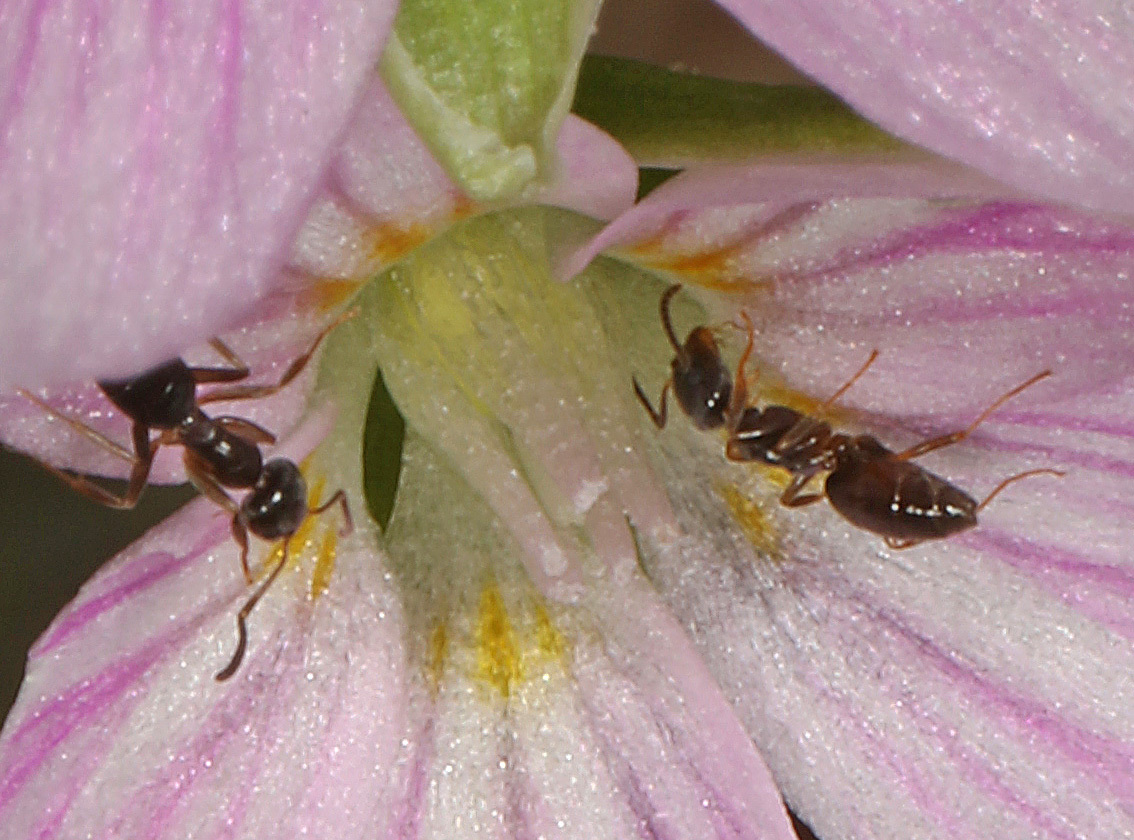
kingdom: Animalia
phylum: Arthropoda
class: Insecta
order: Hymenoptera
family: Formicidae
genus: Tapinoma
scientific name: Tapinoma sessile
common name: Odorous house ant
